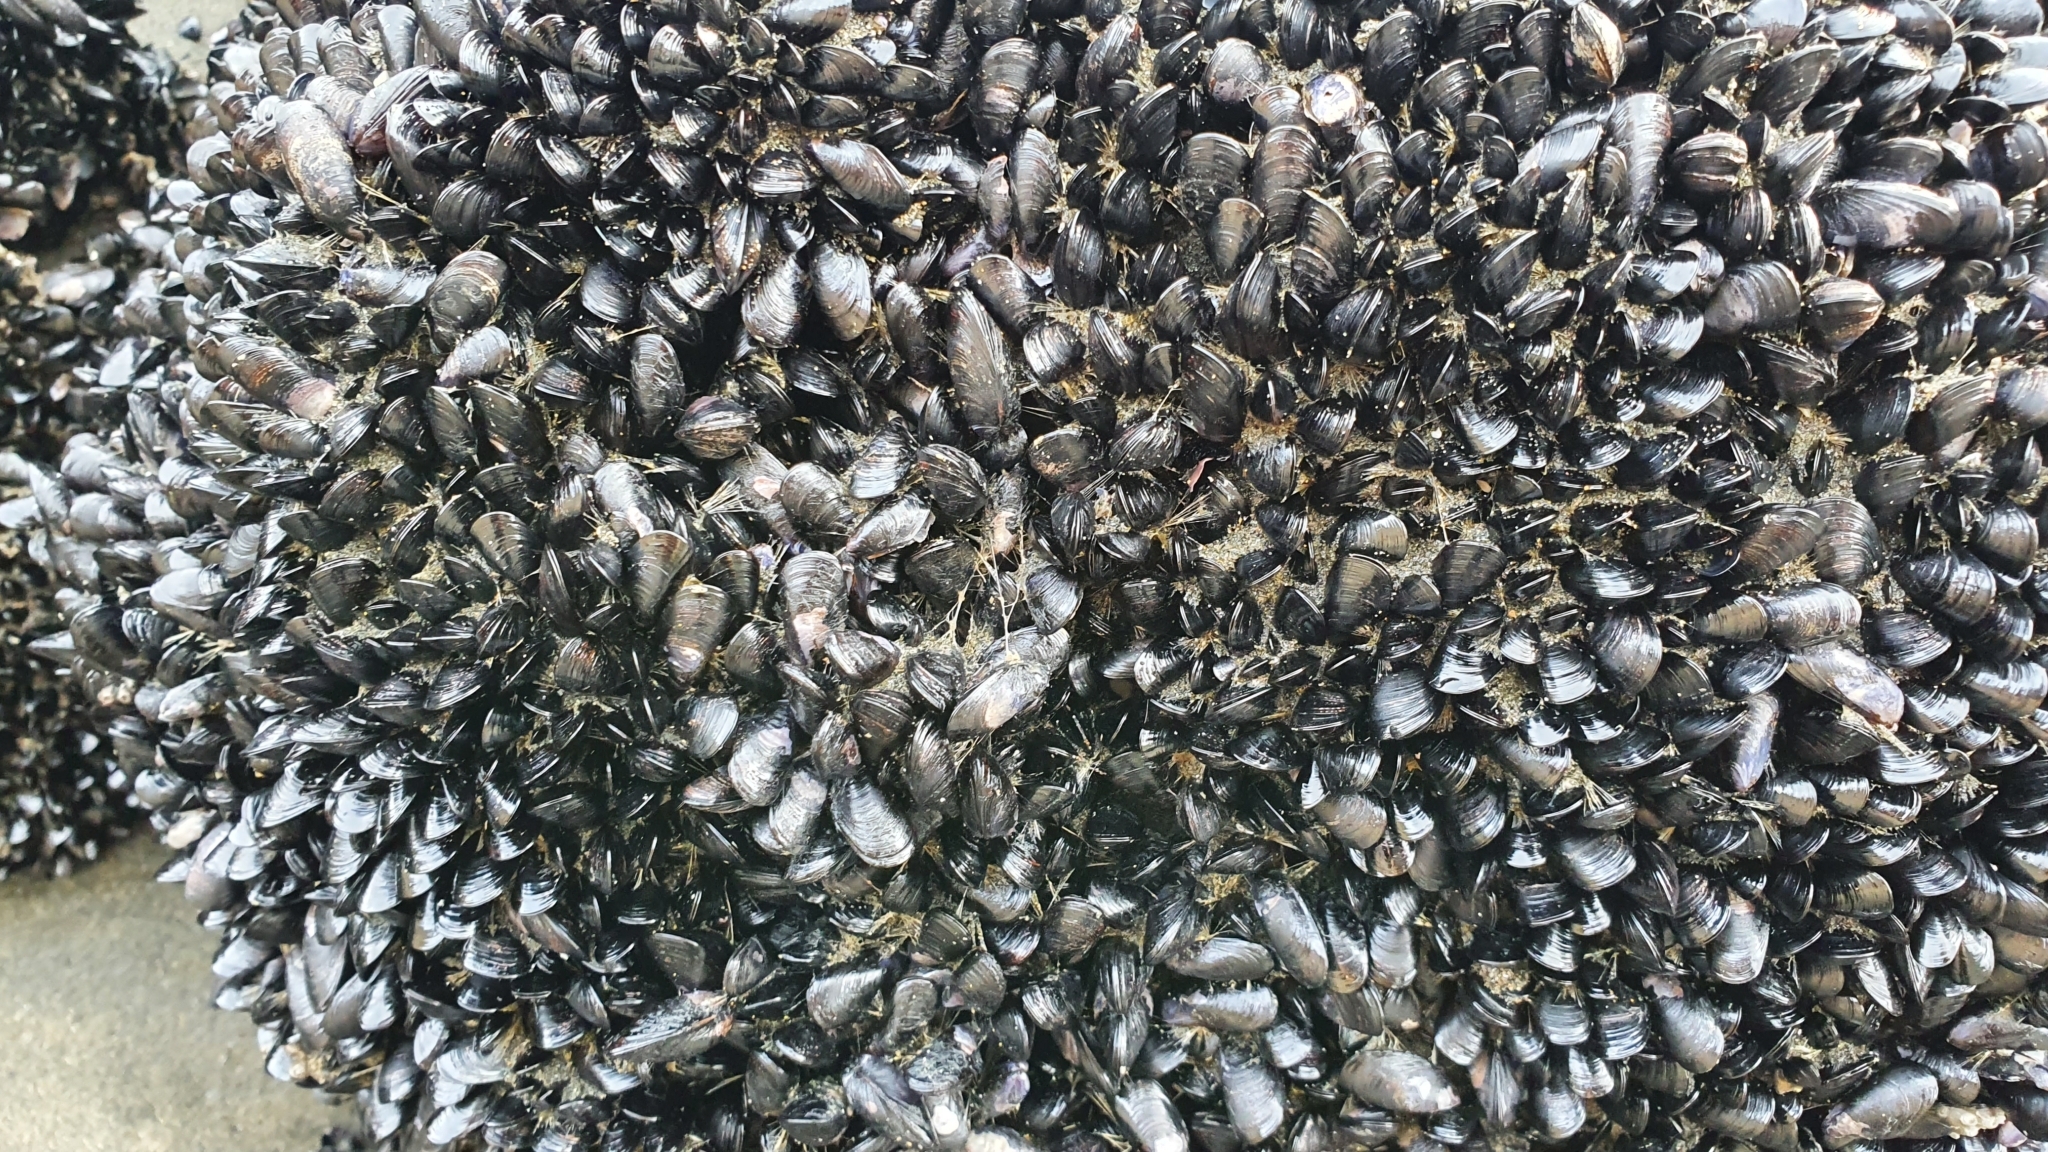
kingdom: Animalia
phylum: Mollusca
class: Bivalvia
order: Mytilida
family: Mytilidae
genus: Xenostrobus
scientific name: Xenostrobus neozelanicus
